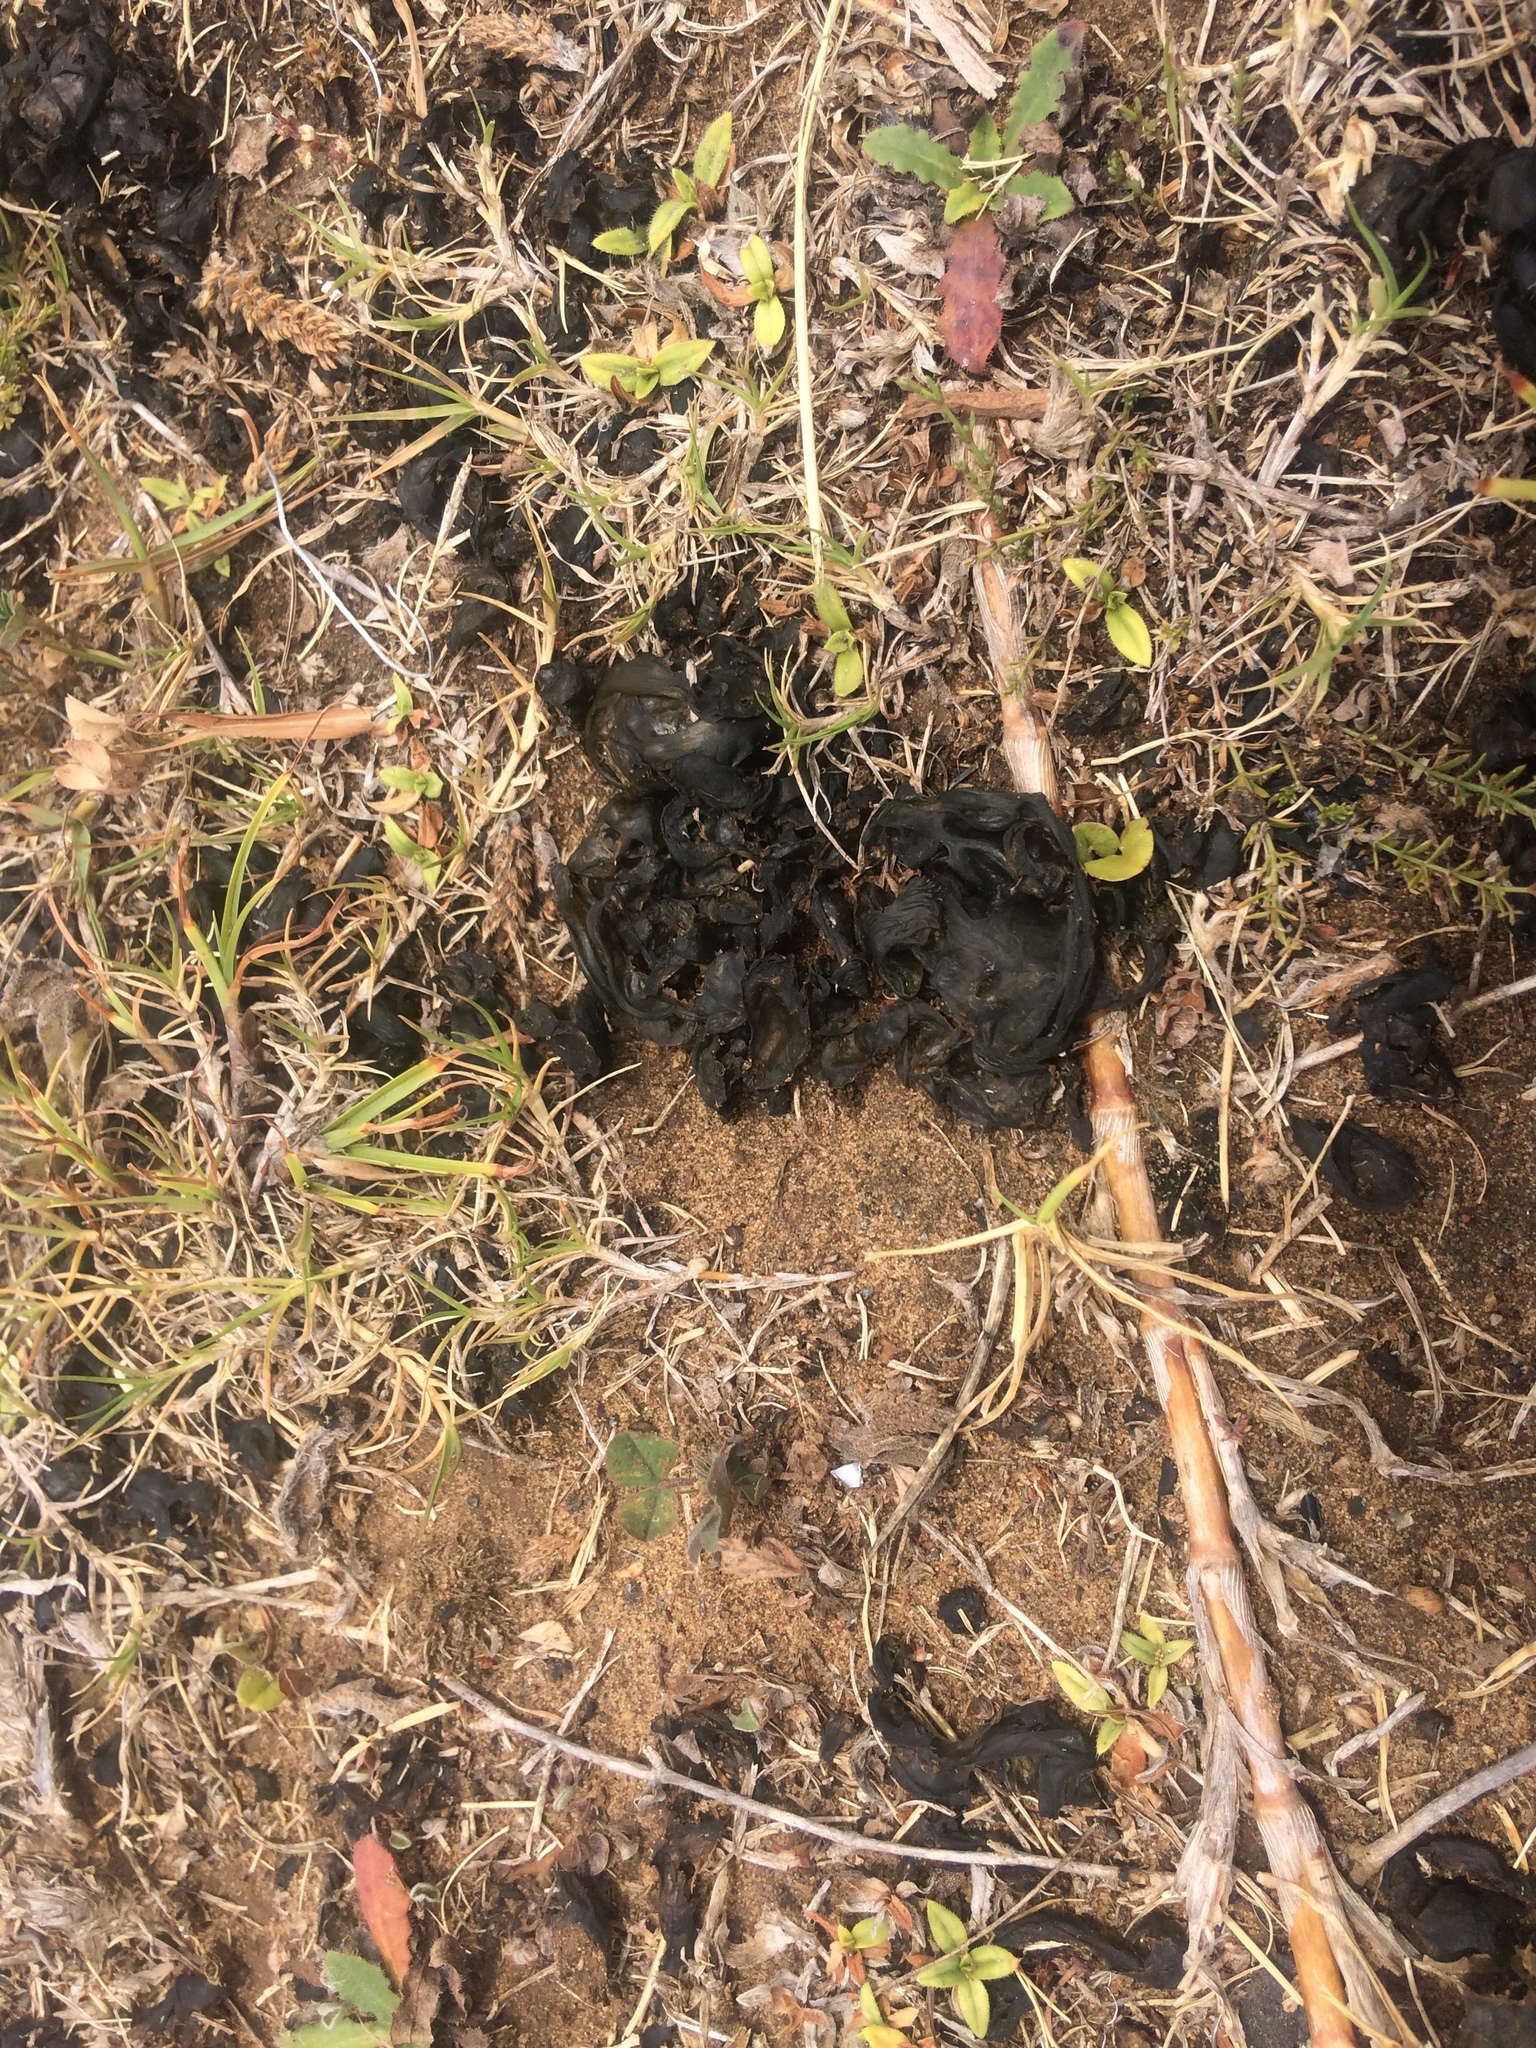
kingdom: Bacteria
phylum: Cyanobacteria
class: Cyanobacteriia
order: Cyanobacteriales
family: Nostocaceae
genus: Nostoc
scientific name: Nostoc commune
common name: Star jelly
